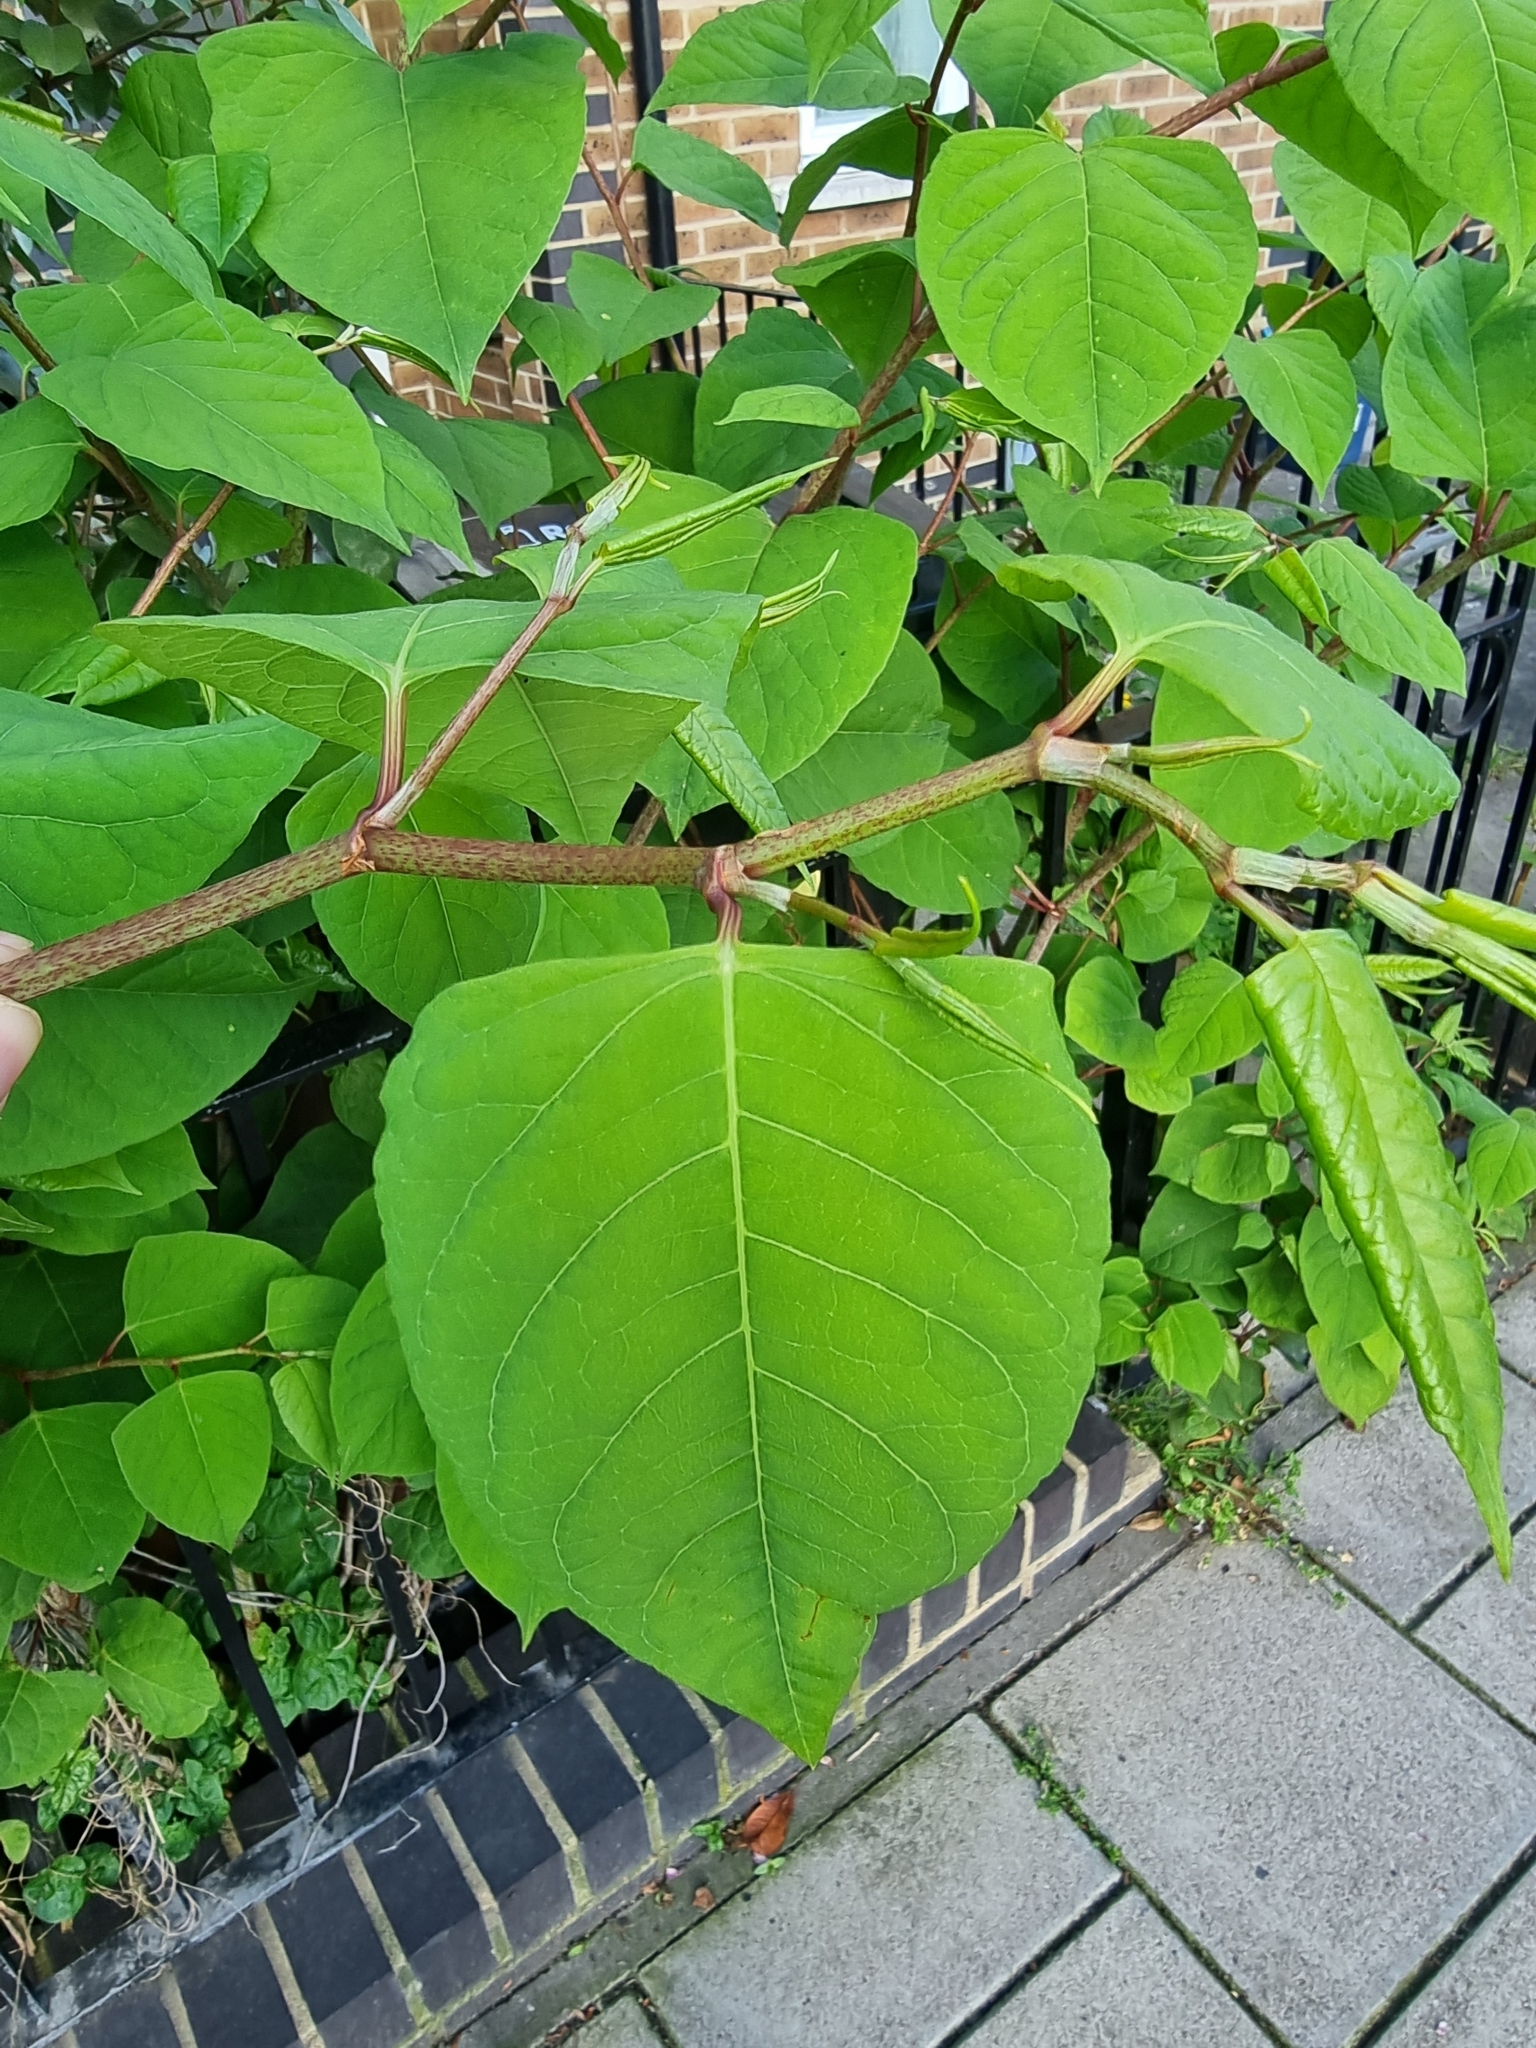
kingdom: Plantae
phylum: Tracheophyta
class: Magnoliopsida
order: Caryophyllales
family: Polygonaceae
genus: Reynoutria
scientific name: Reynoutria japonica
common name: Japanese knotweed
